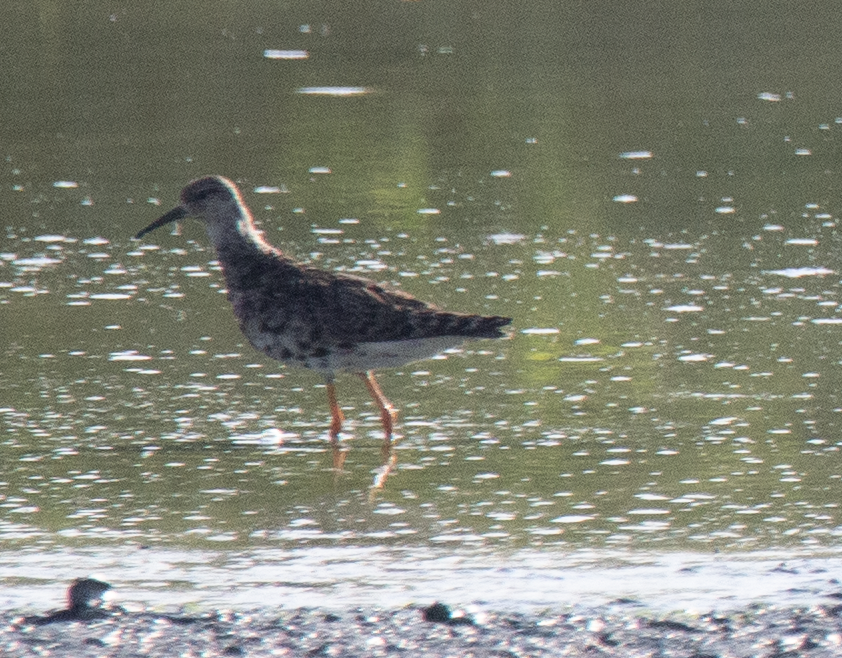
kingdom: Animalia
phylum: Chordata
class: Aves
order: Charadriiformes
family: Scolopacidae
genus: Calidris
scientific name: Calidris pugnax
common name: Ruff
